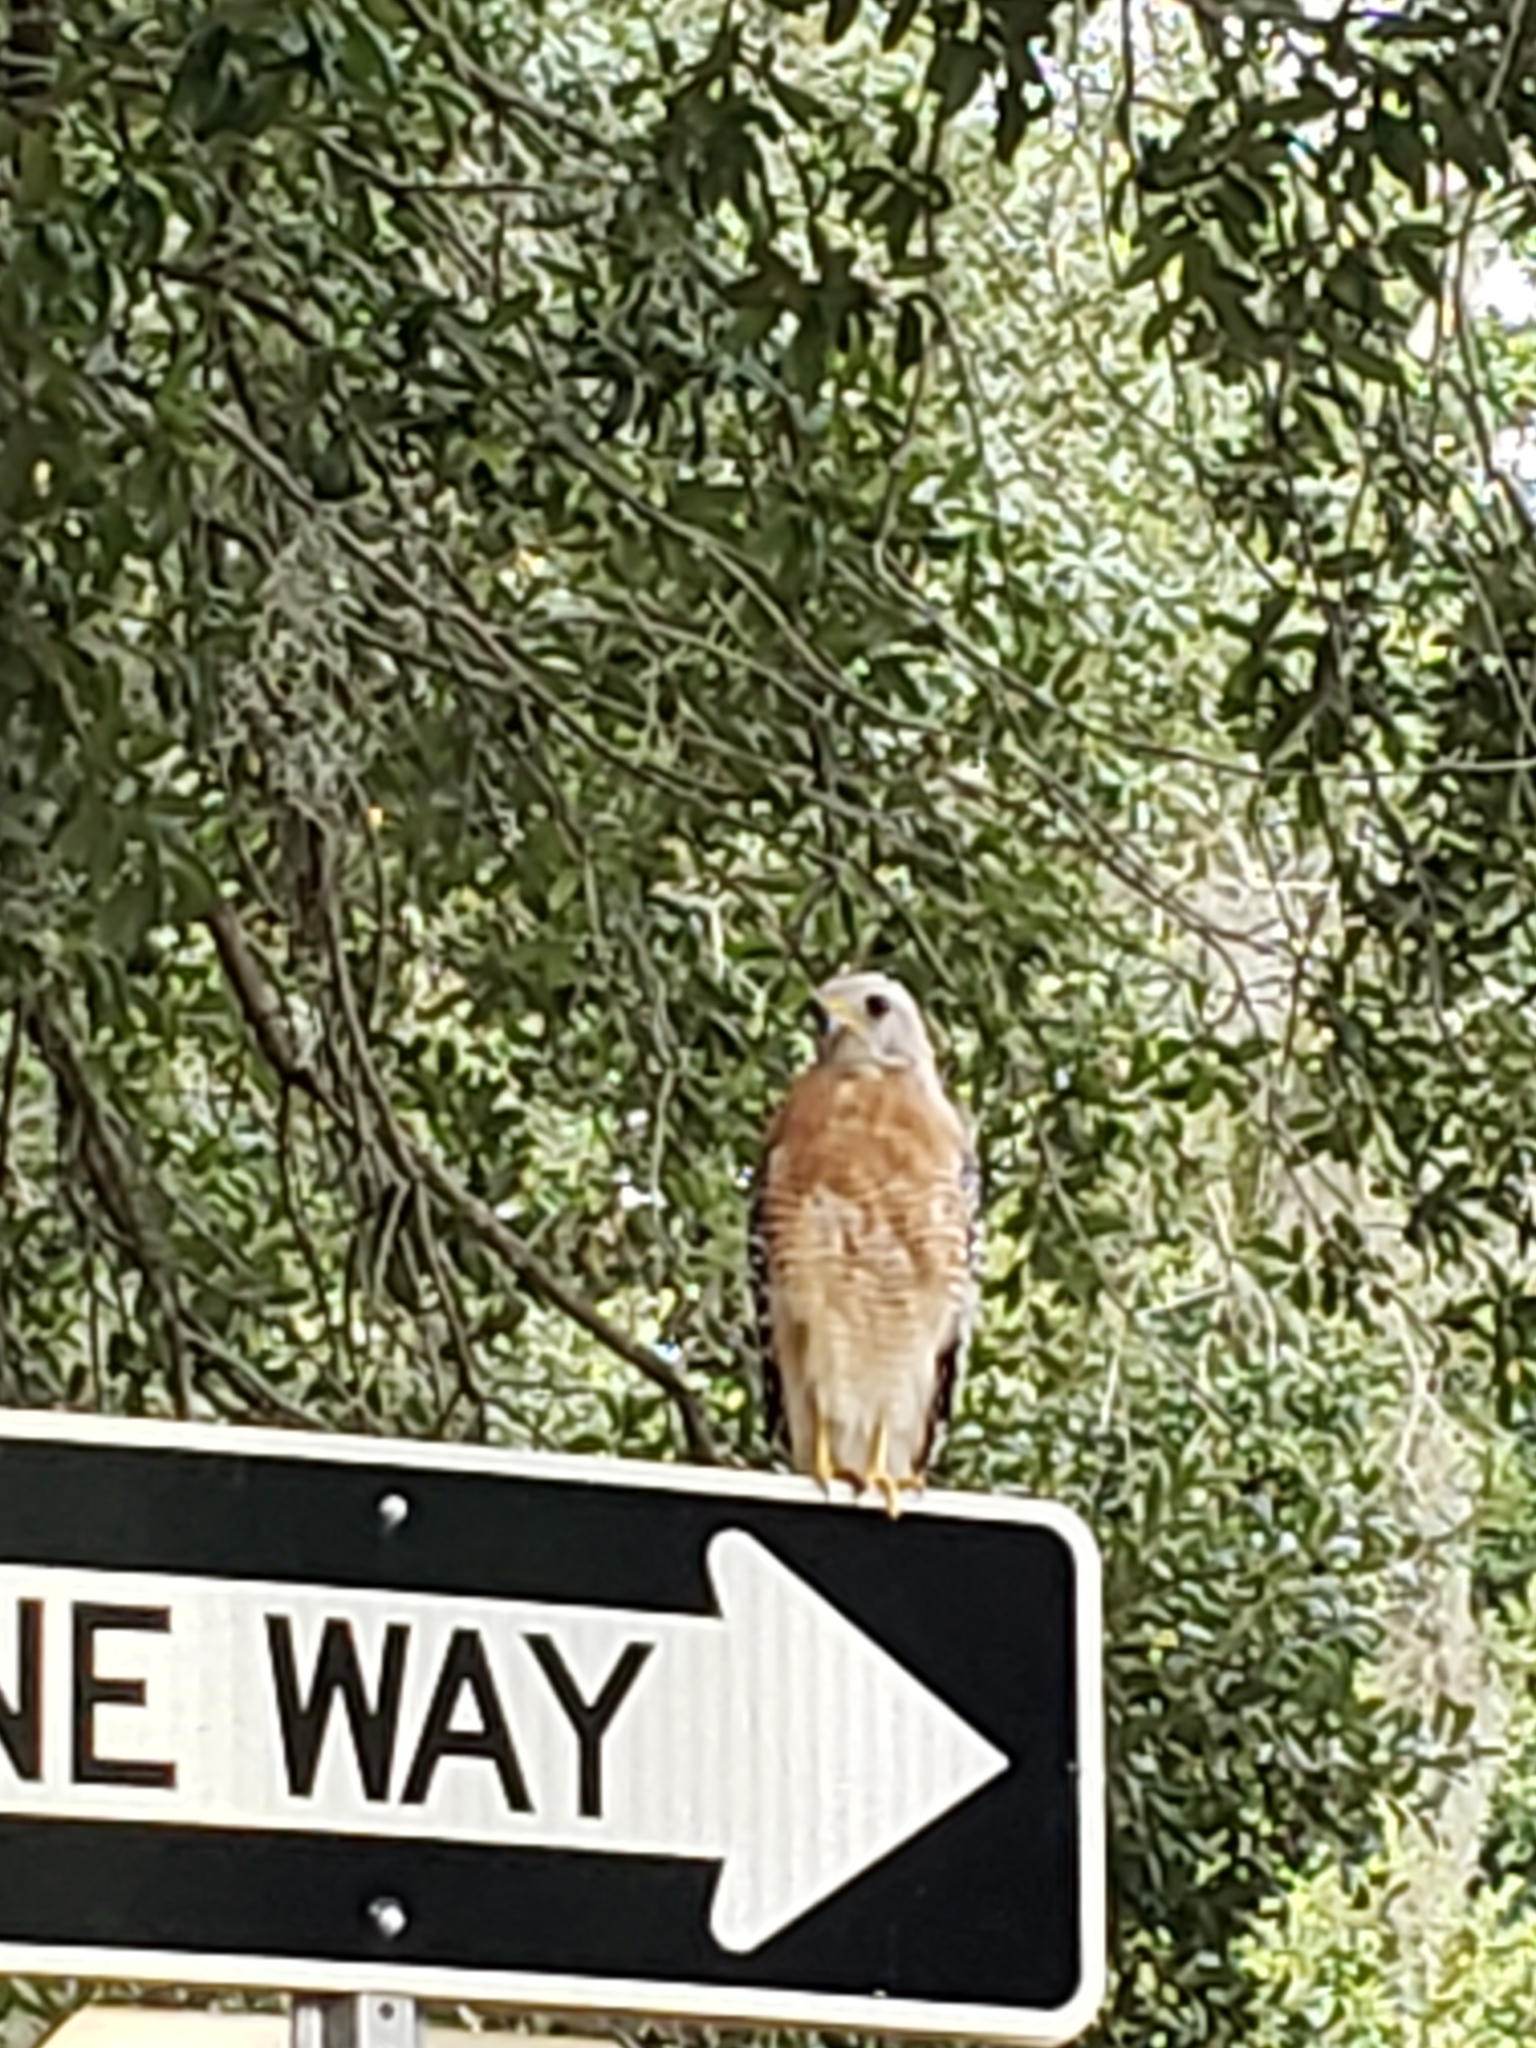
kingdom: Animalia
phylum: Chordata
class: Aves
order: Accipitriformes
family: Accipitridae
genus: Buteo
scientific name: Buteo lineatus
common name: Red-shouldered hawk
